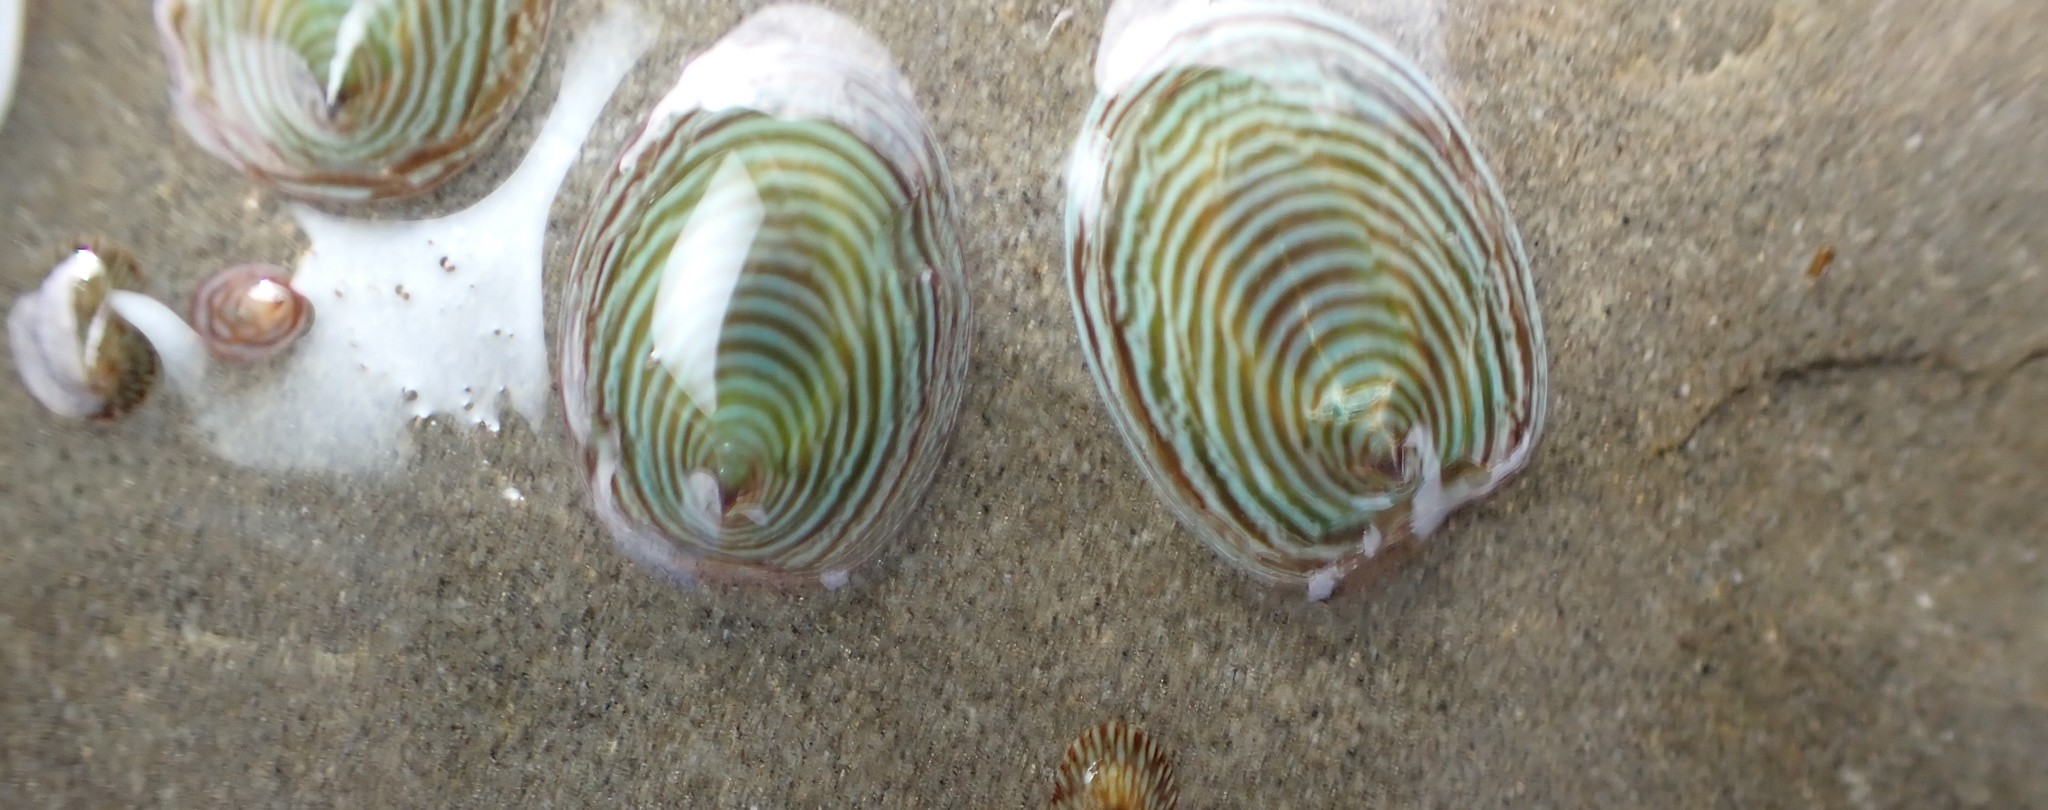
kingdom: Animalia
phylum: Mollusca
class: Gastropoda
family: Lottiidae
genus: Atalacmea
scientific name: Atalacmea fragilis
